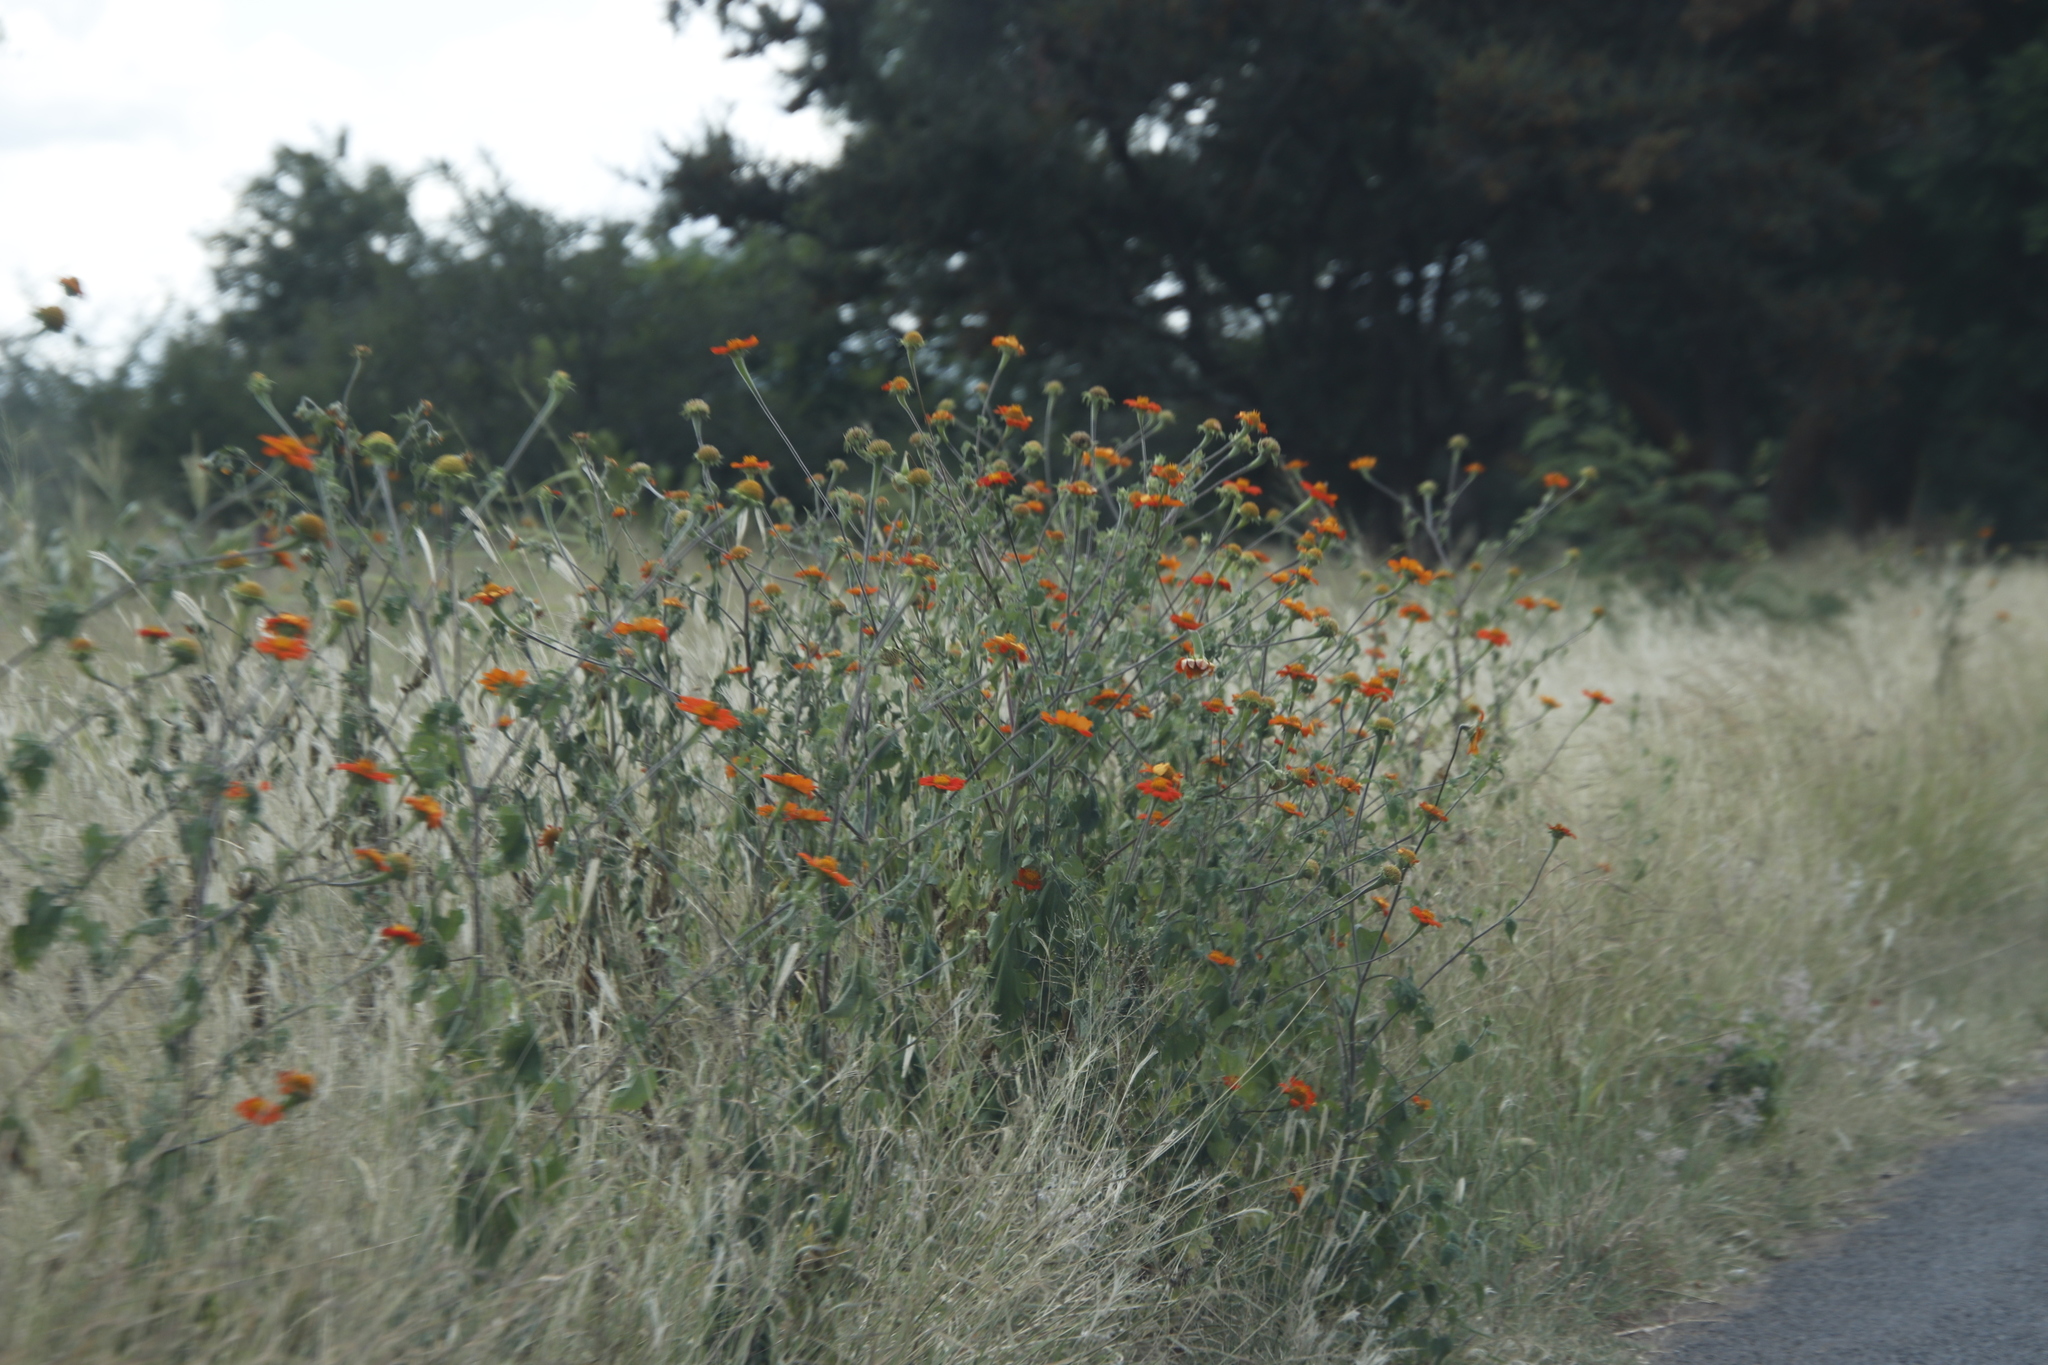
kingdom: Plantae
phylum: Tracheophyta
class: Magnoliopsida
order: Asterales
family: Asteraceae
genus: Tithonia
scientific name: Tithonia rotundifolia
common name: Sunflower
